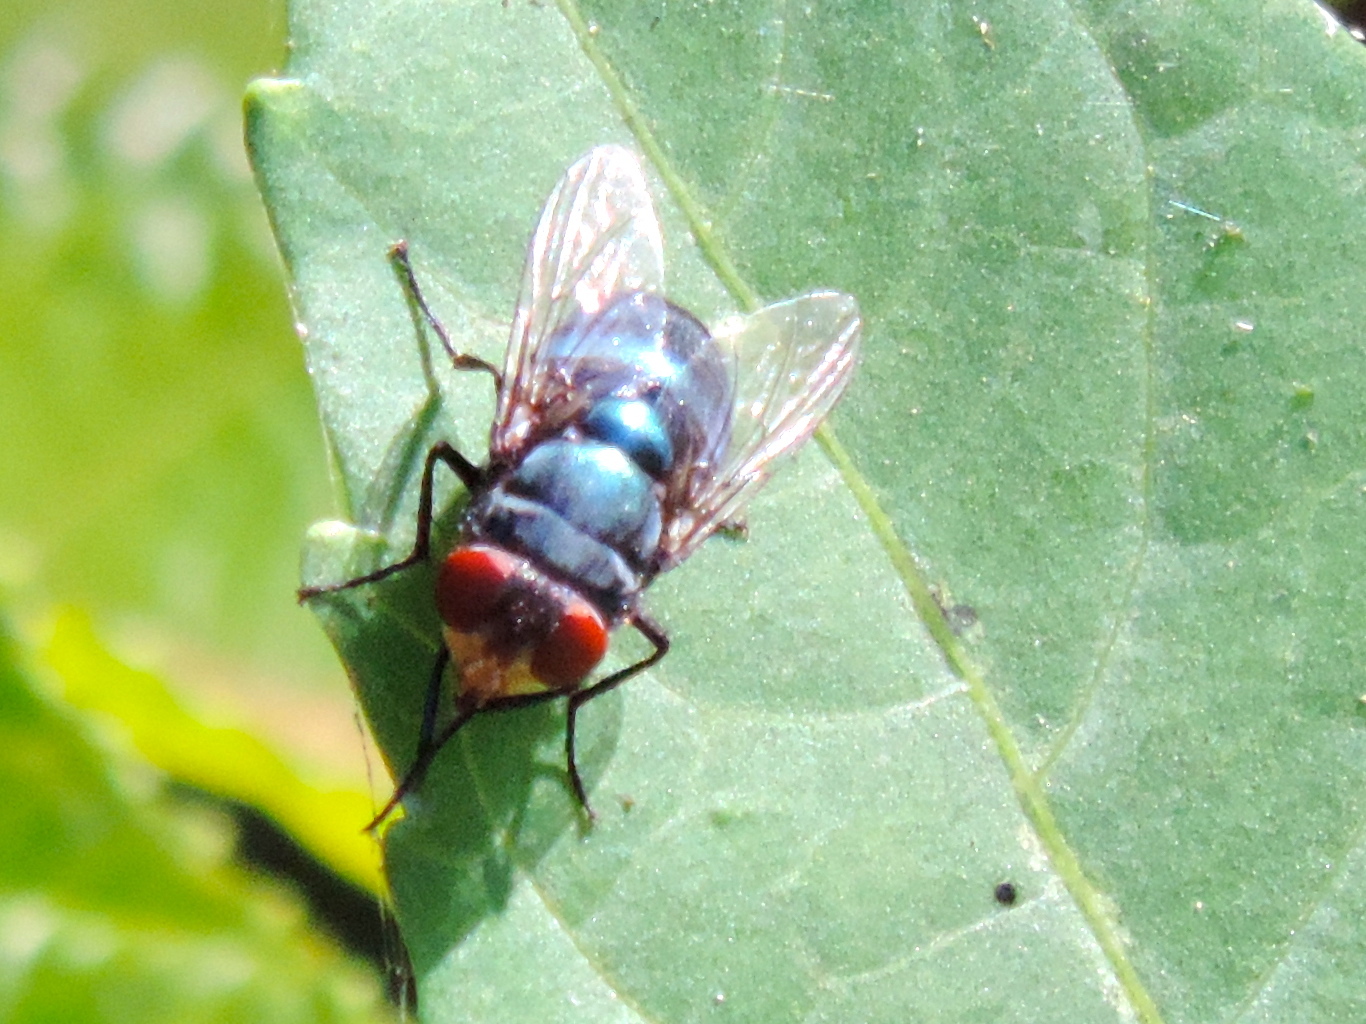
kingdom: Animalia
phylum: Arthropoda
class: Insecta
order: Diptera
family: Calliphoridae
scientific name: Calliphoridae
